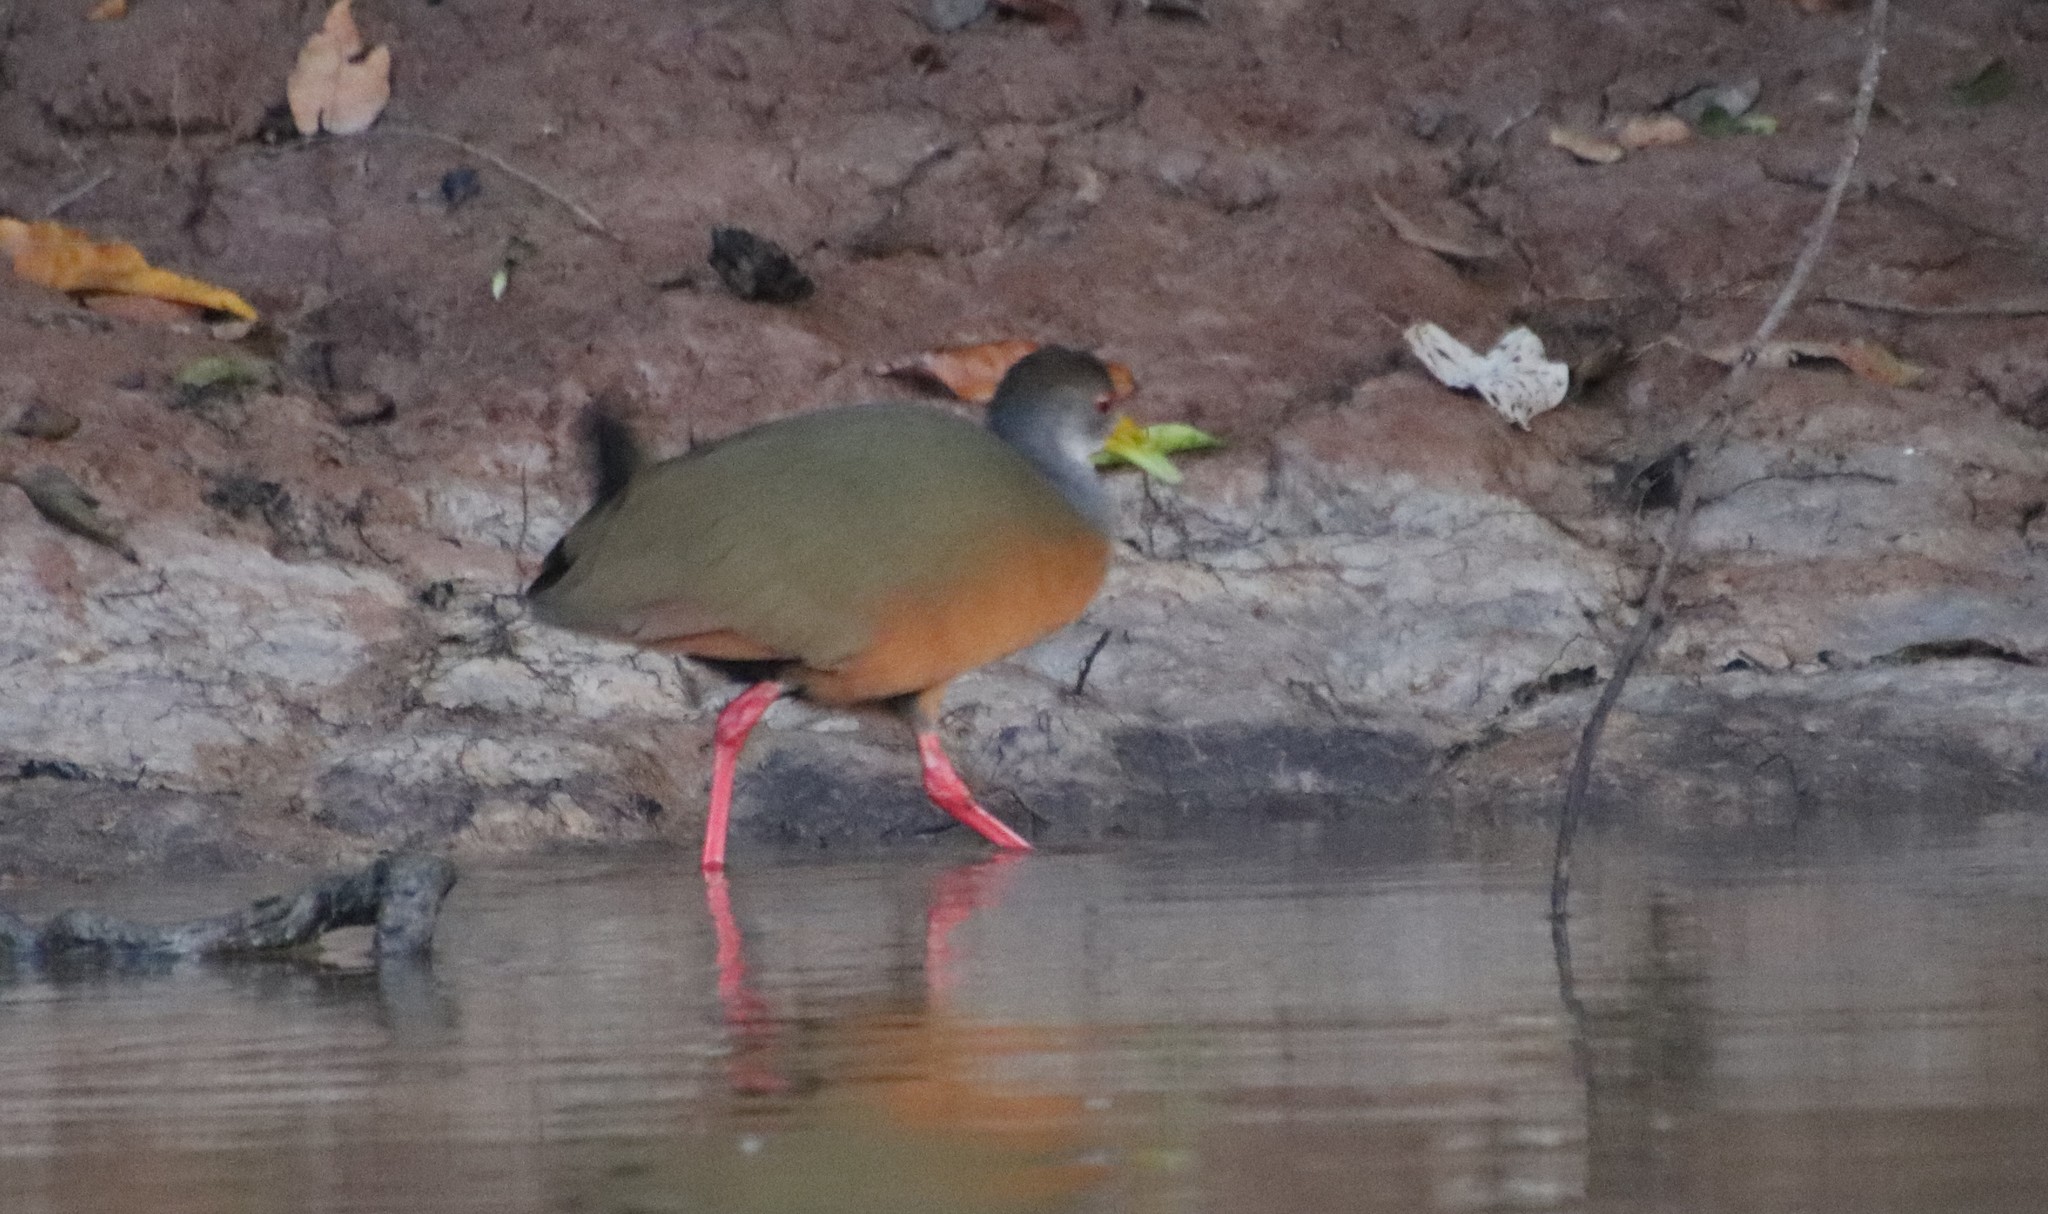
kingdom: Animalia
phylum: Chordata
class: Aves
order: Gruiformes
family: Rallidae
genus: Aramides
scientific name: Aramides cajanea
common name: Gray-necked wood-rail
